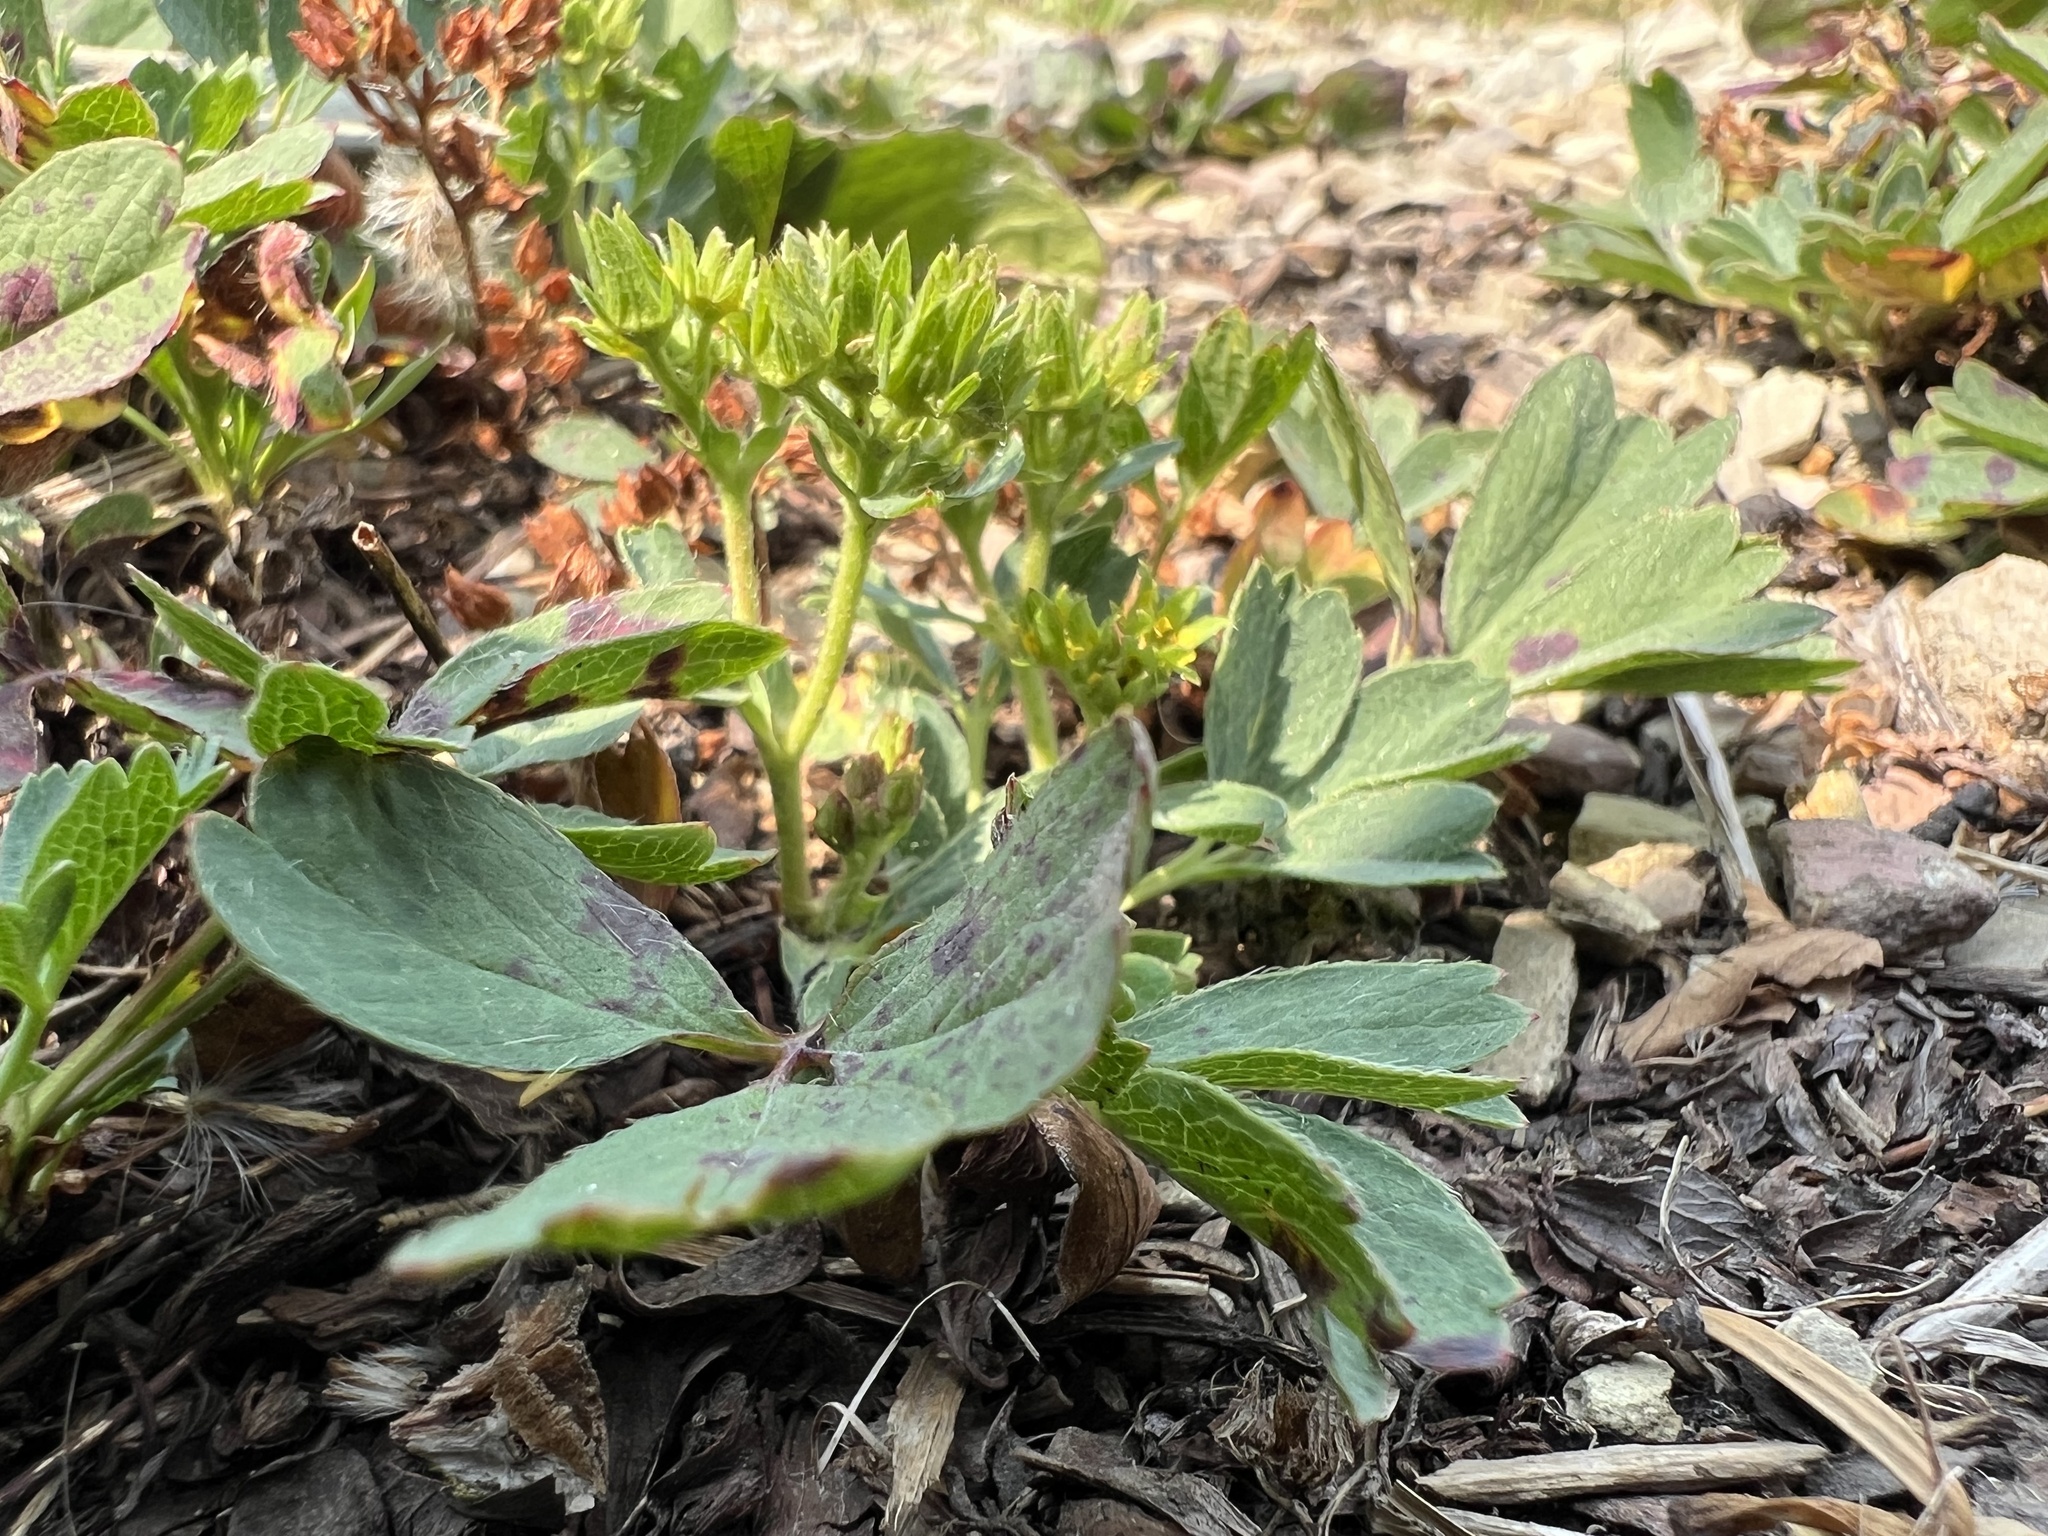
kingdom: Plantae
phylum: Tracheophyta
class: Magnoliopsida
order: Rosales
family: Rosaceae
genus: Sibbaldia
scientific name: Sibbaldia procumbens
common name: Creeping sibbaldia
